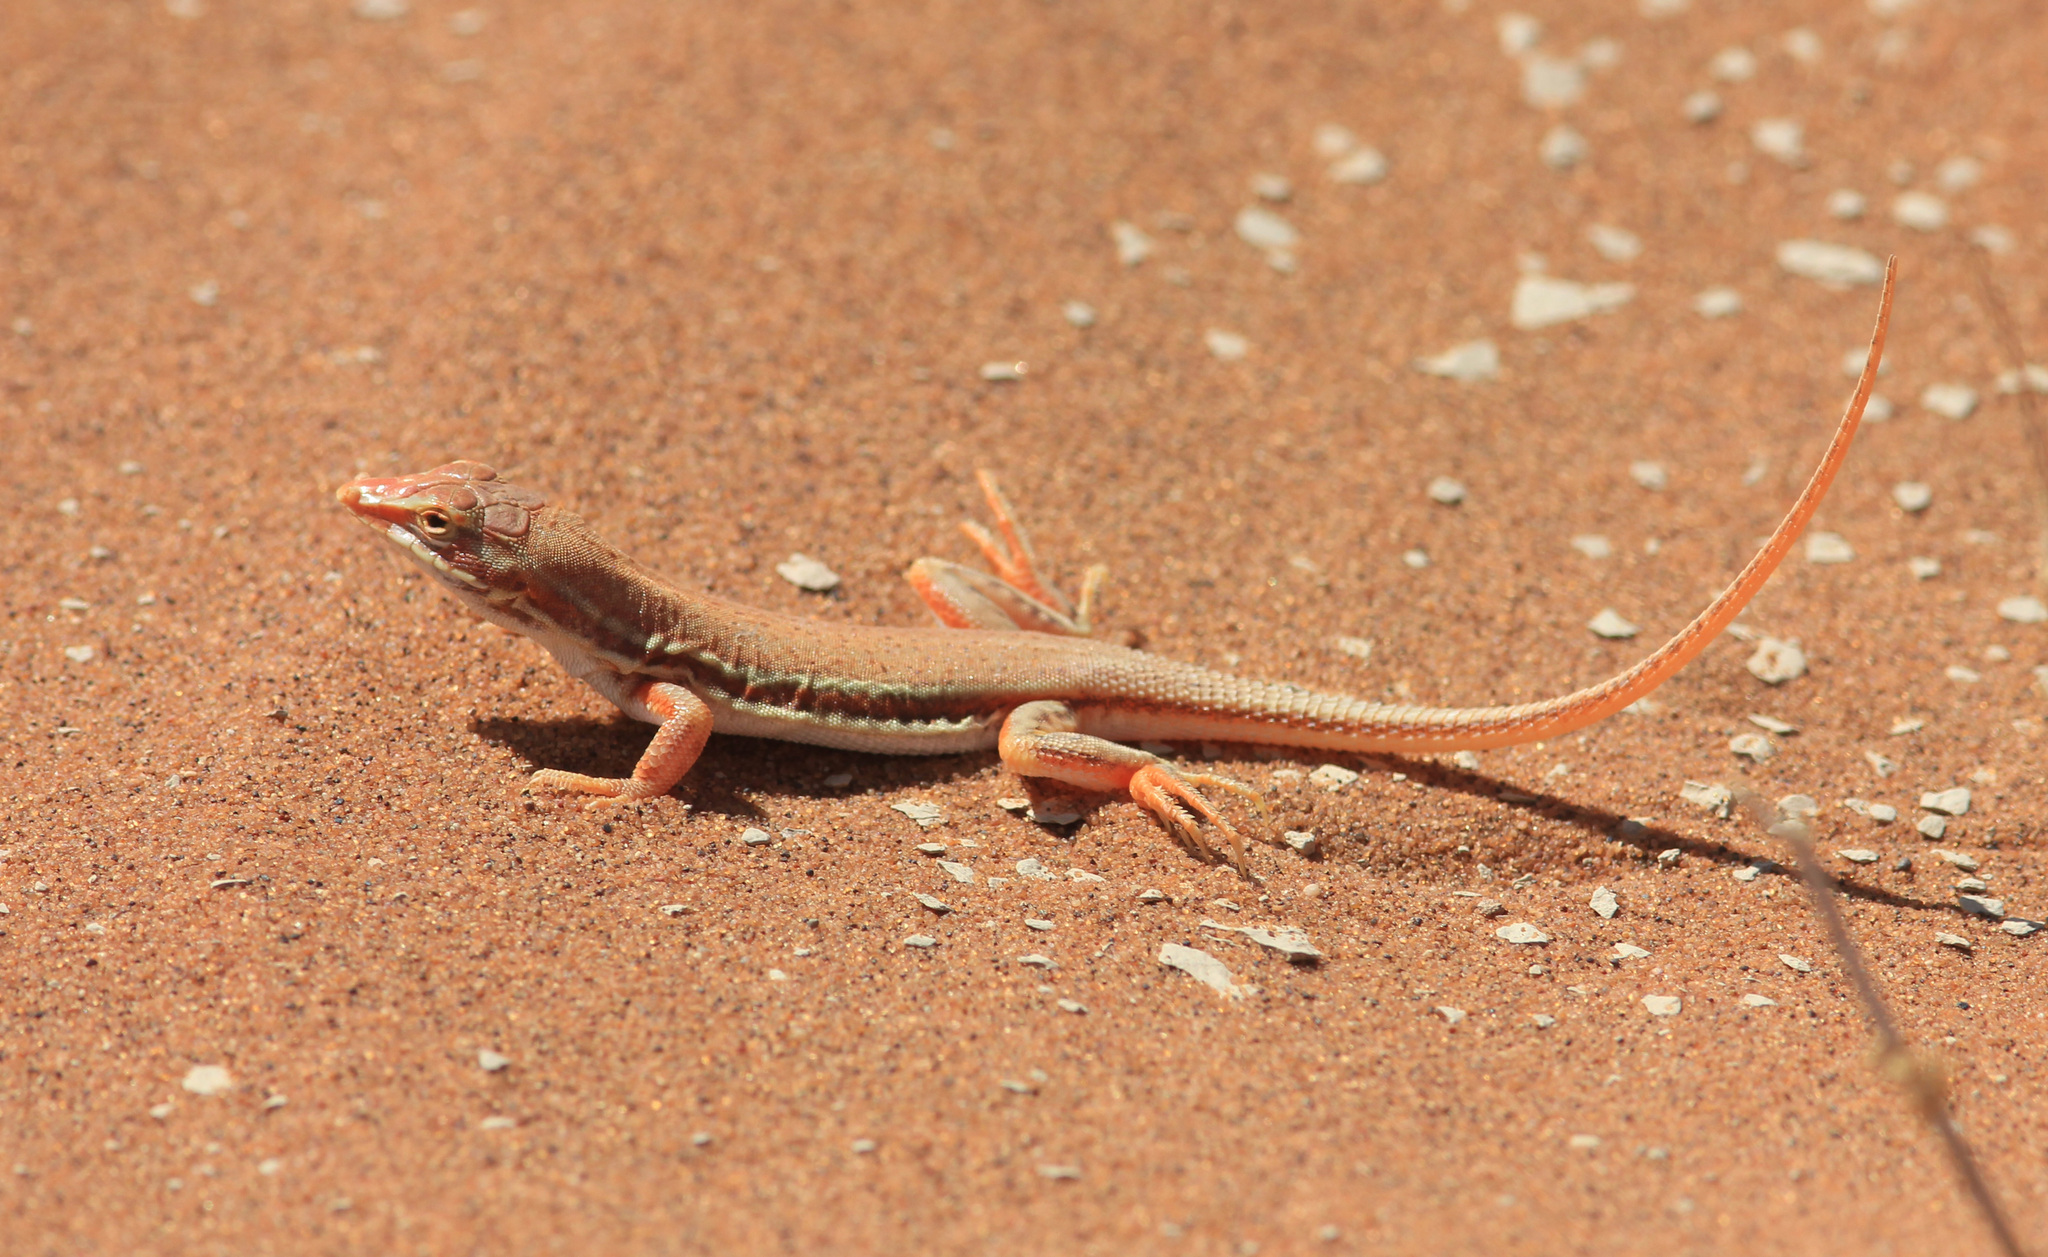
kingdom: Animalia
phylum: Chordata
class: Squamata
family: Lacertidae
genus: Meroles
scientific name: Meroles cuneirostris
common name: Wedge-snouted desert lizard
